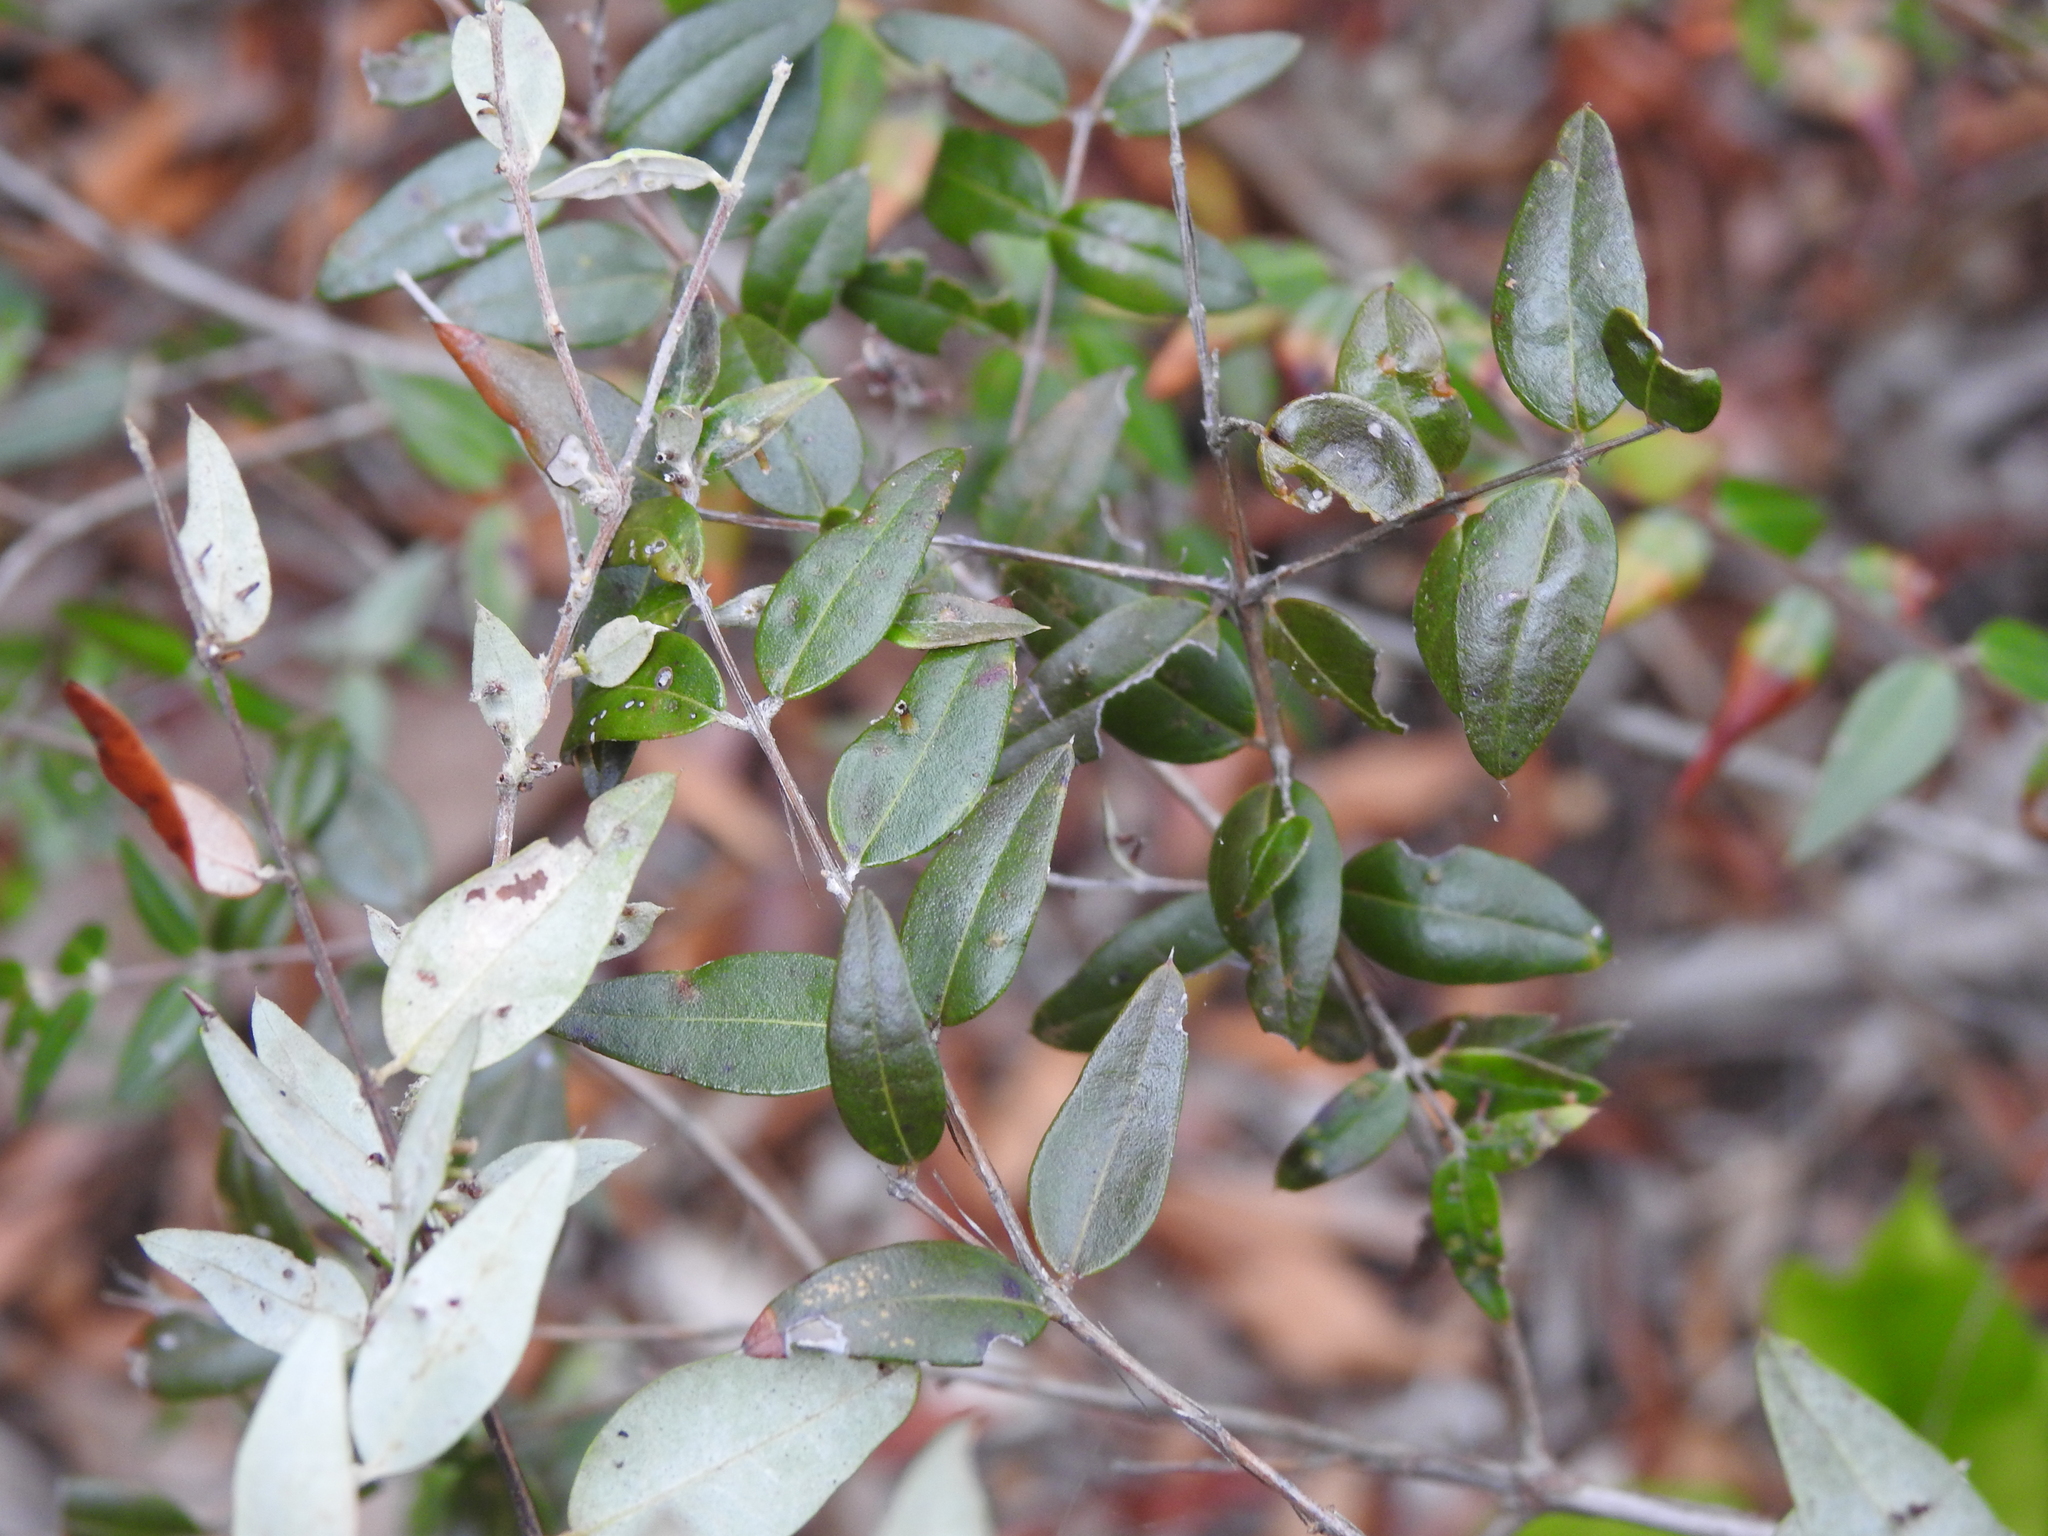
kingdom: Plantae
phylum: Tracheophyta
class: Magnoliopsida
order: Myrtales
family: Myrtaceae
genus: Austromyrtus
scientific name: Austromyrtus dulcis
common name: Migden-berry
